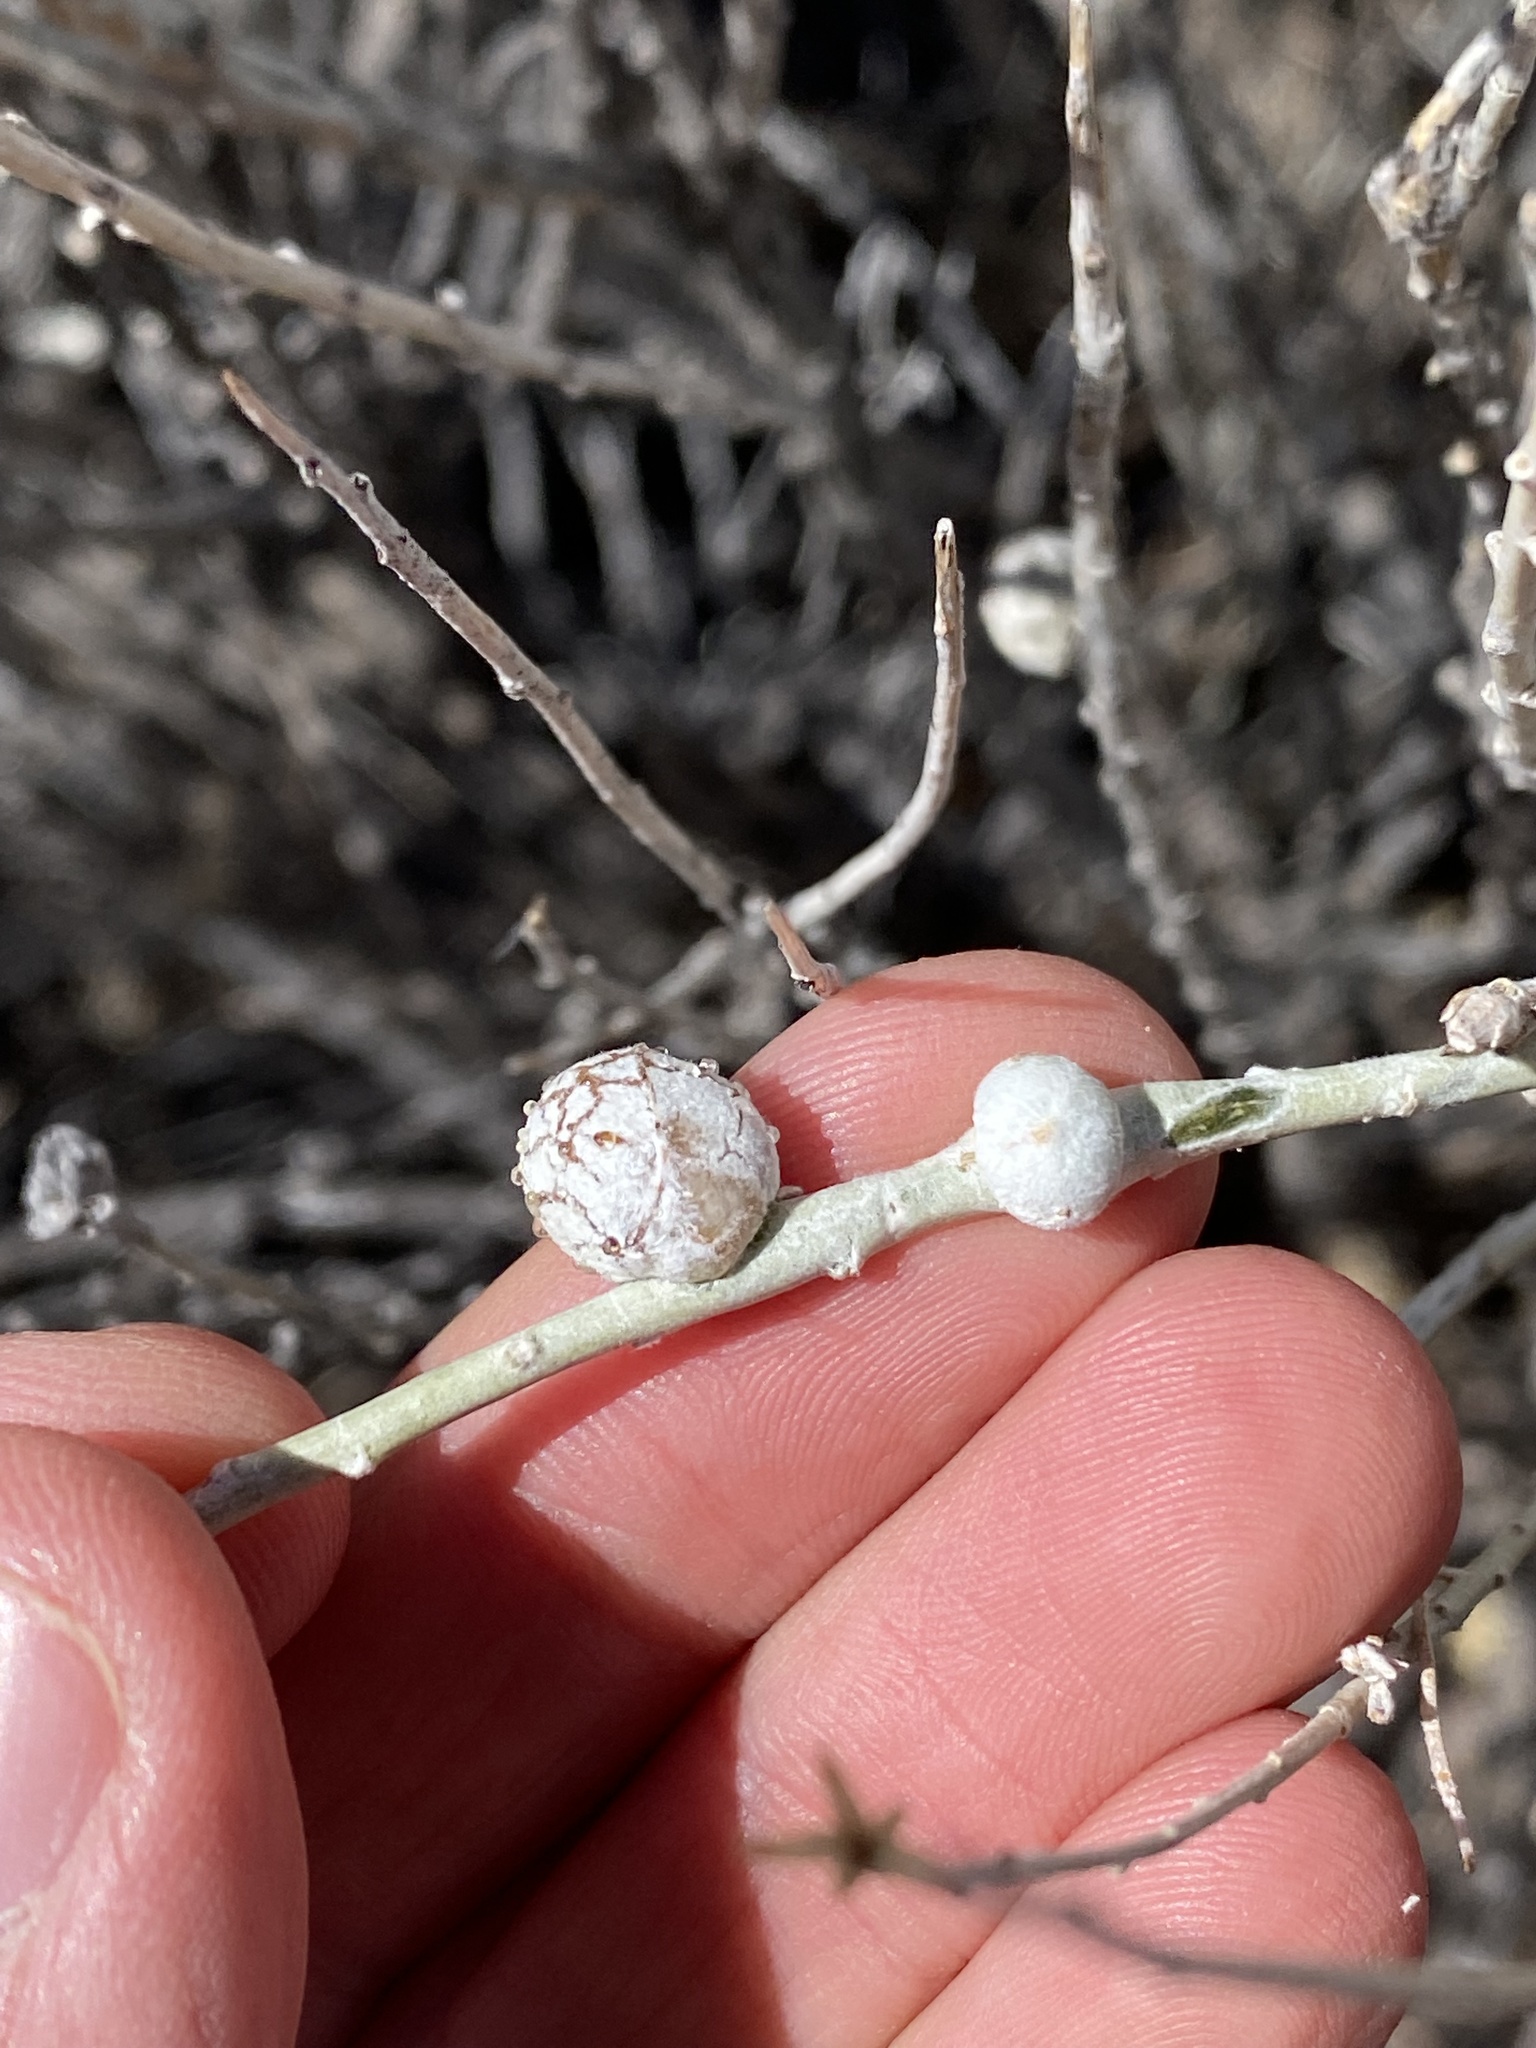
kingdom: Animalia
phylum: Arthropoda
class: Insecta
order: Diptera
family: Tephritidae
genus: Aciurina
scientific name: Aciurina trixa
